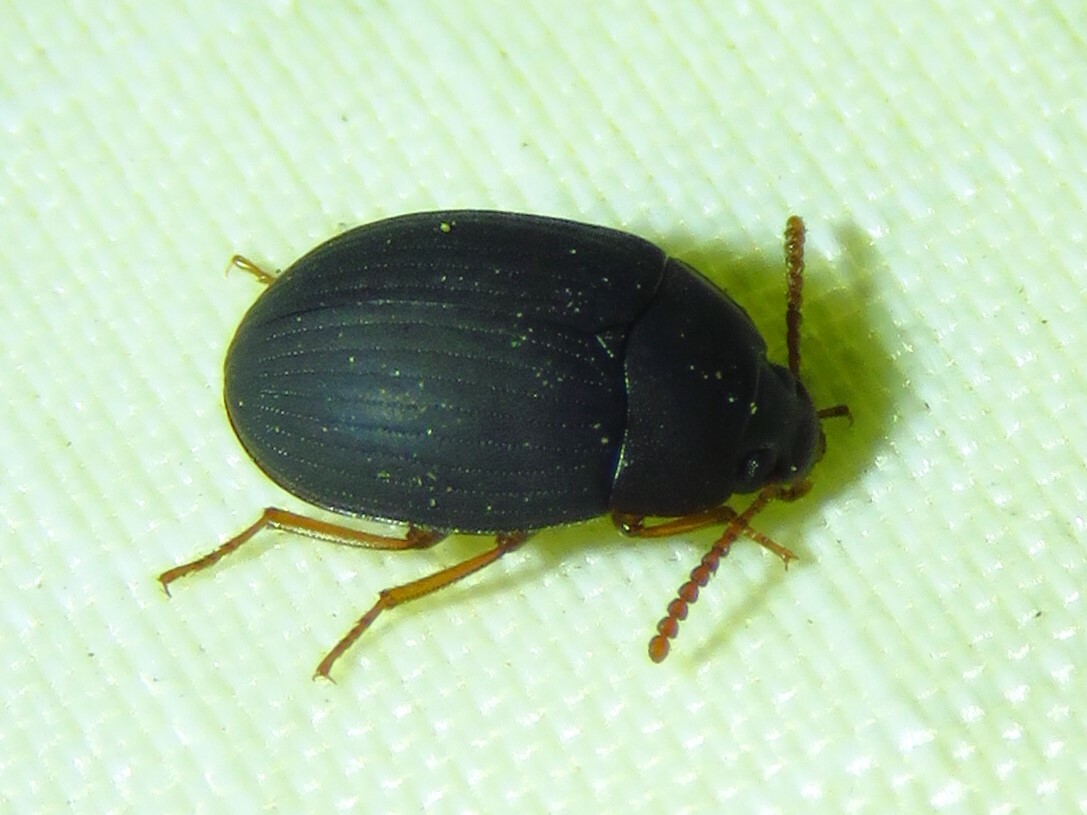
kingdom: Animalia
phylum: Arthropoda
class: Insecta
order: Coleoptera
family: Tenebrionidae
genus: Platydema
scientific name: Platydema ruficornis
